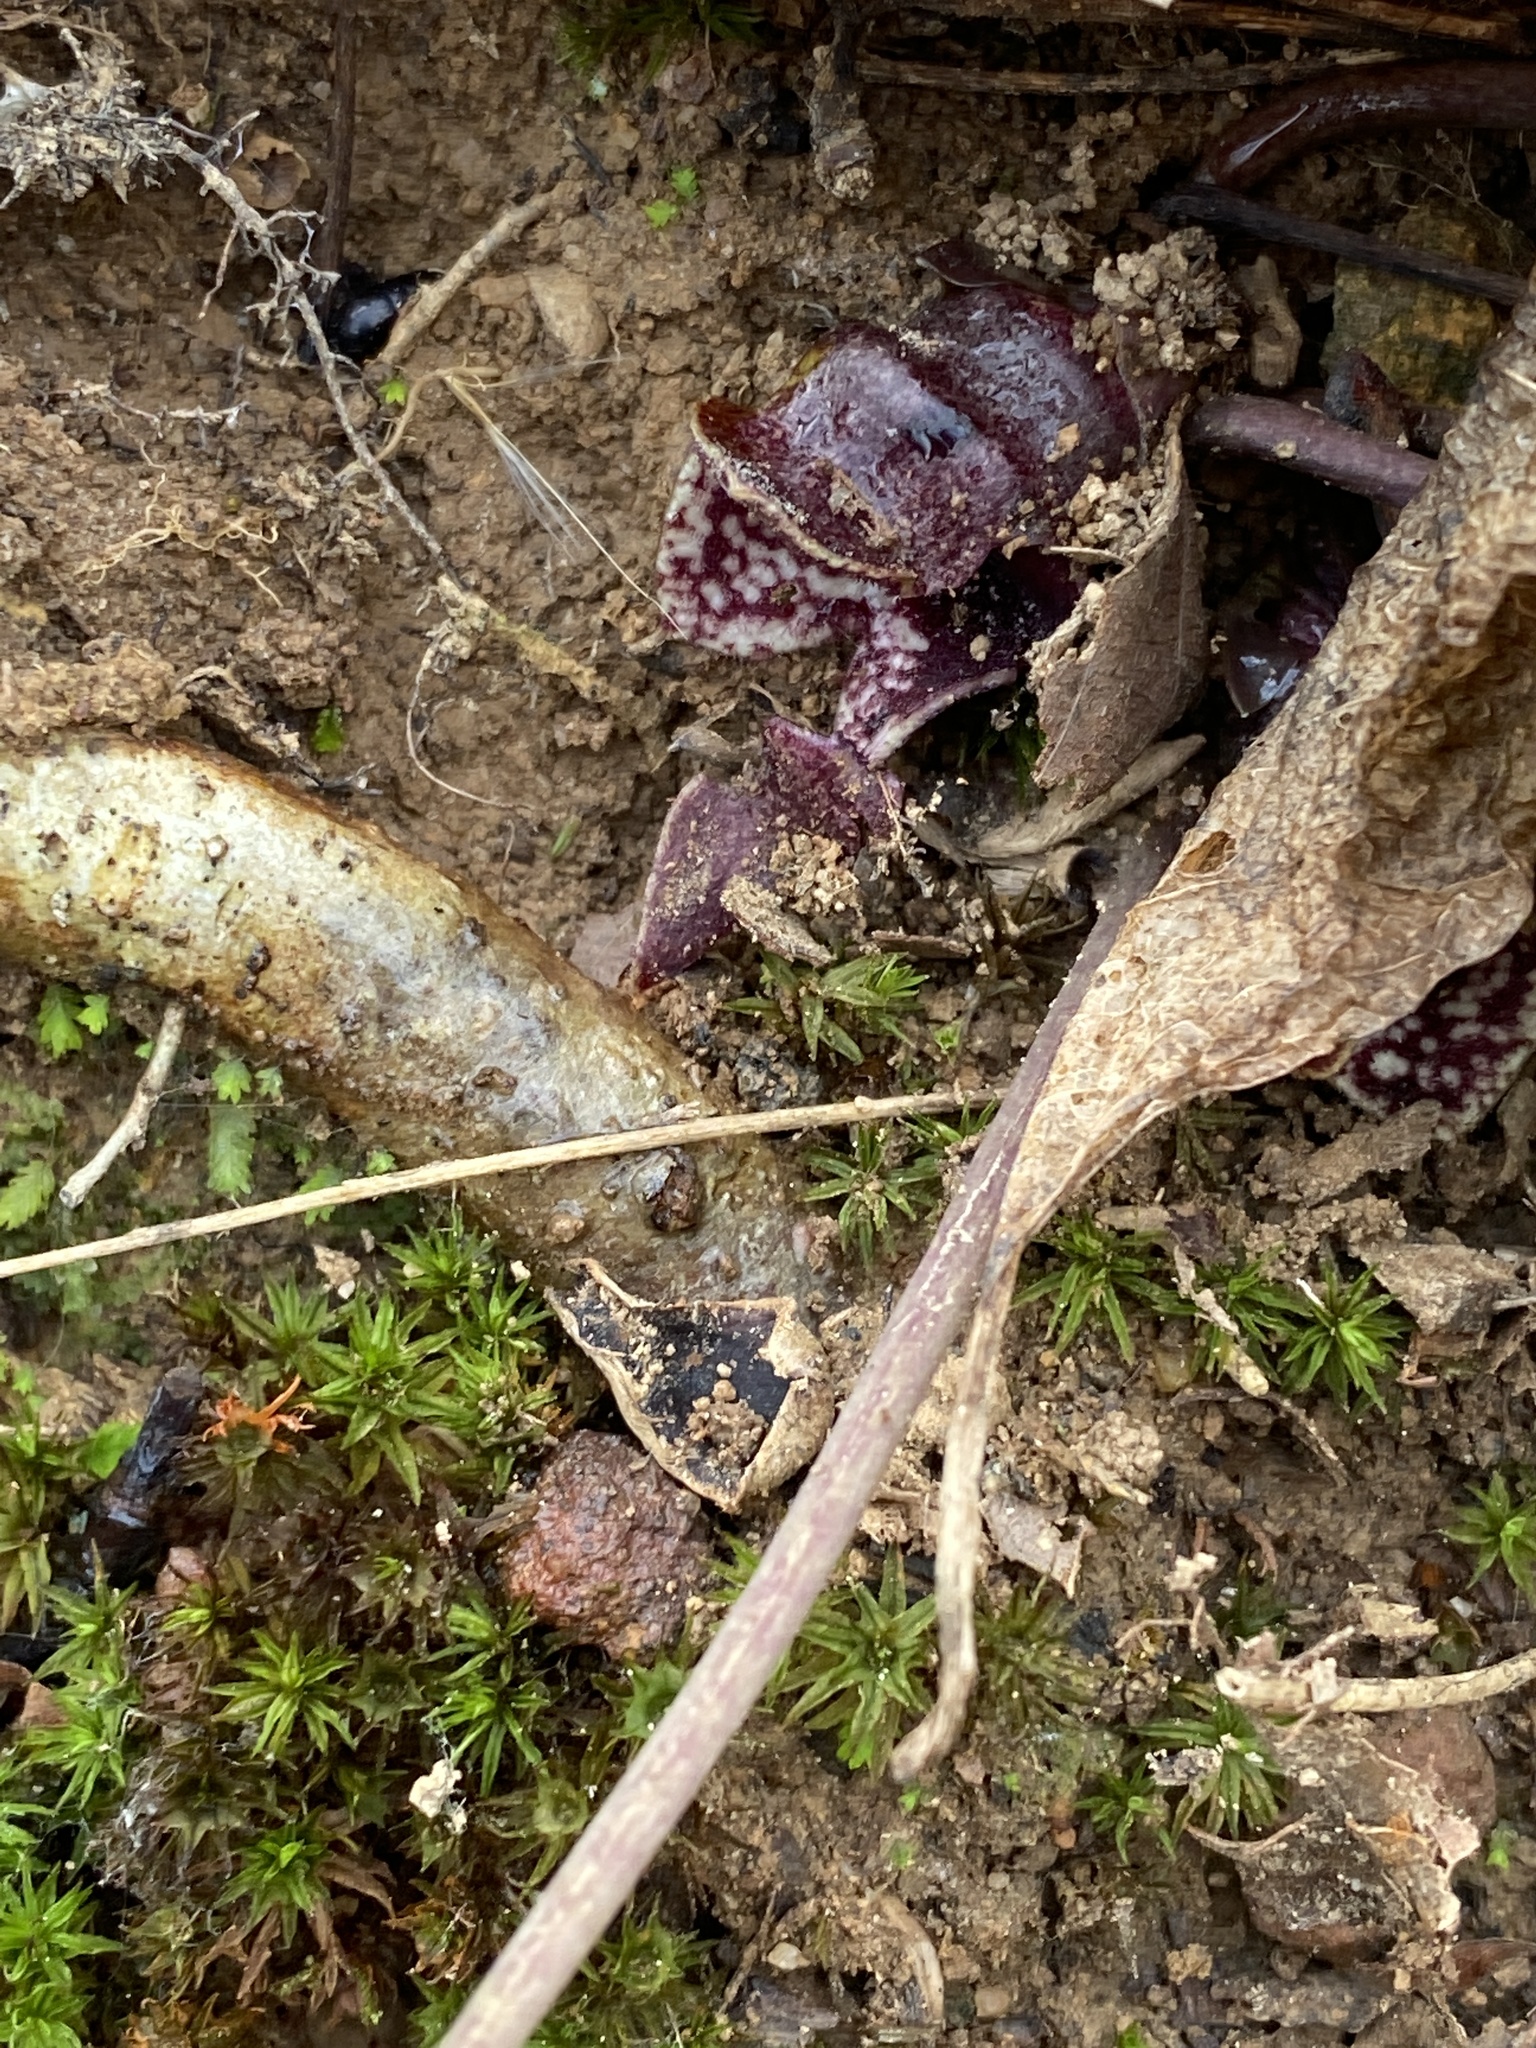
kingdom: Plantae
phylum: Tracheophyta
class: Magnoliopsida
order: Piperales
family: Aristolochiaceae
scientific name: Aristolochiaceae
